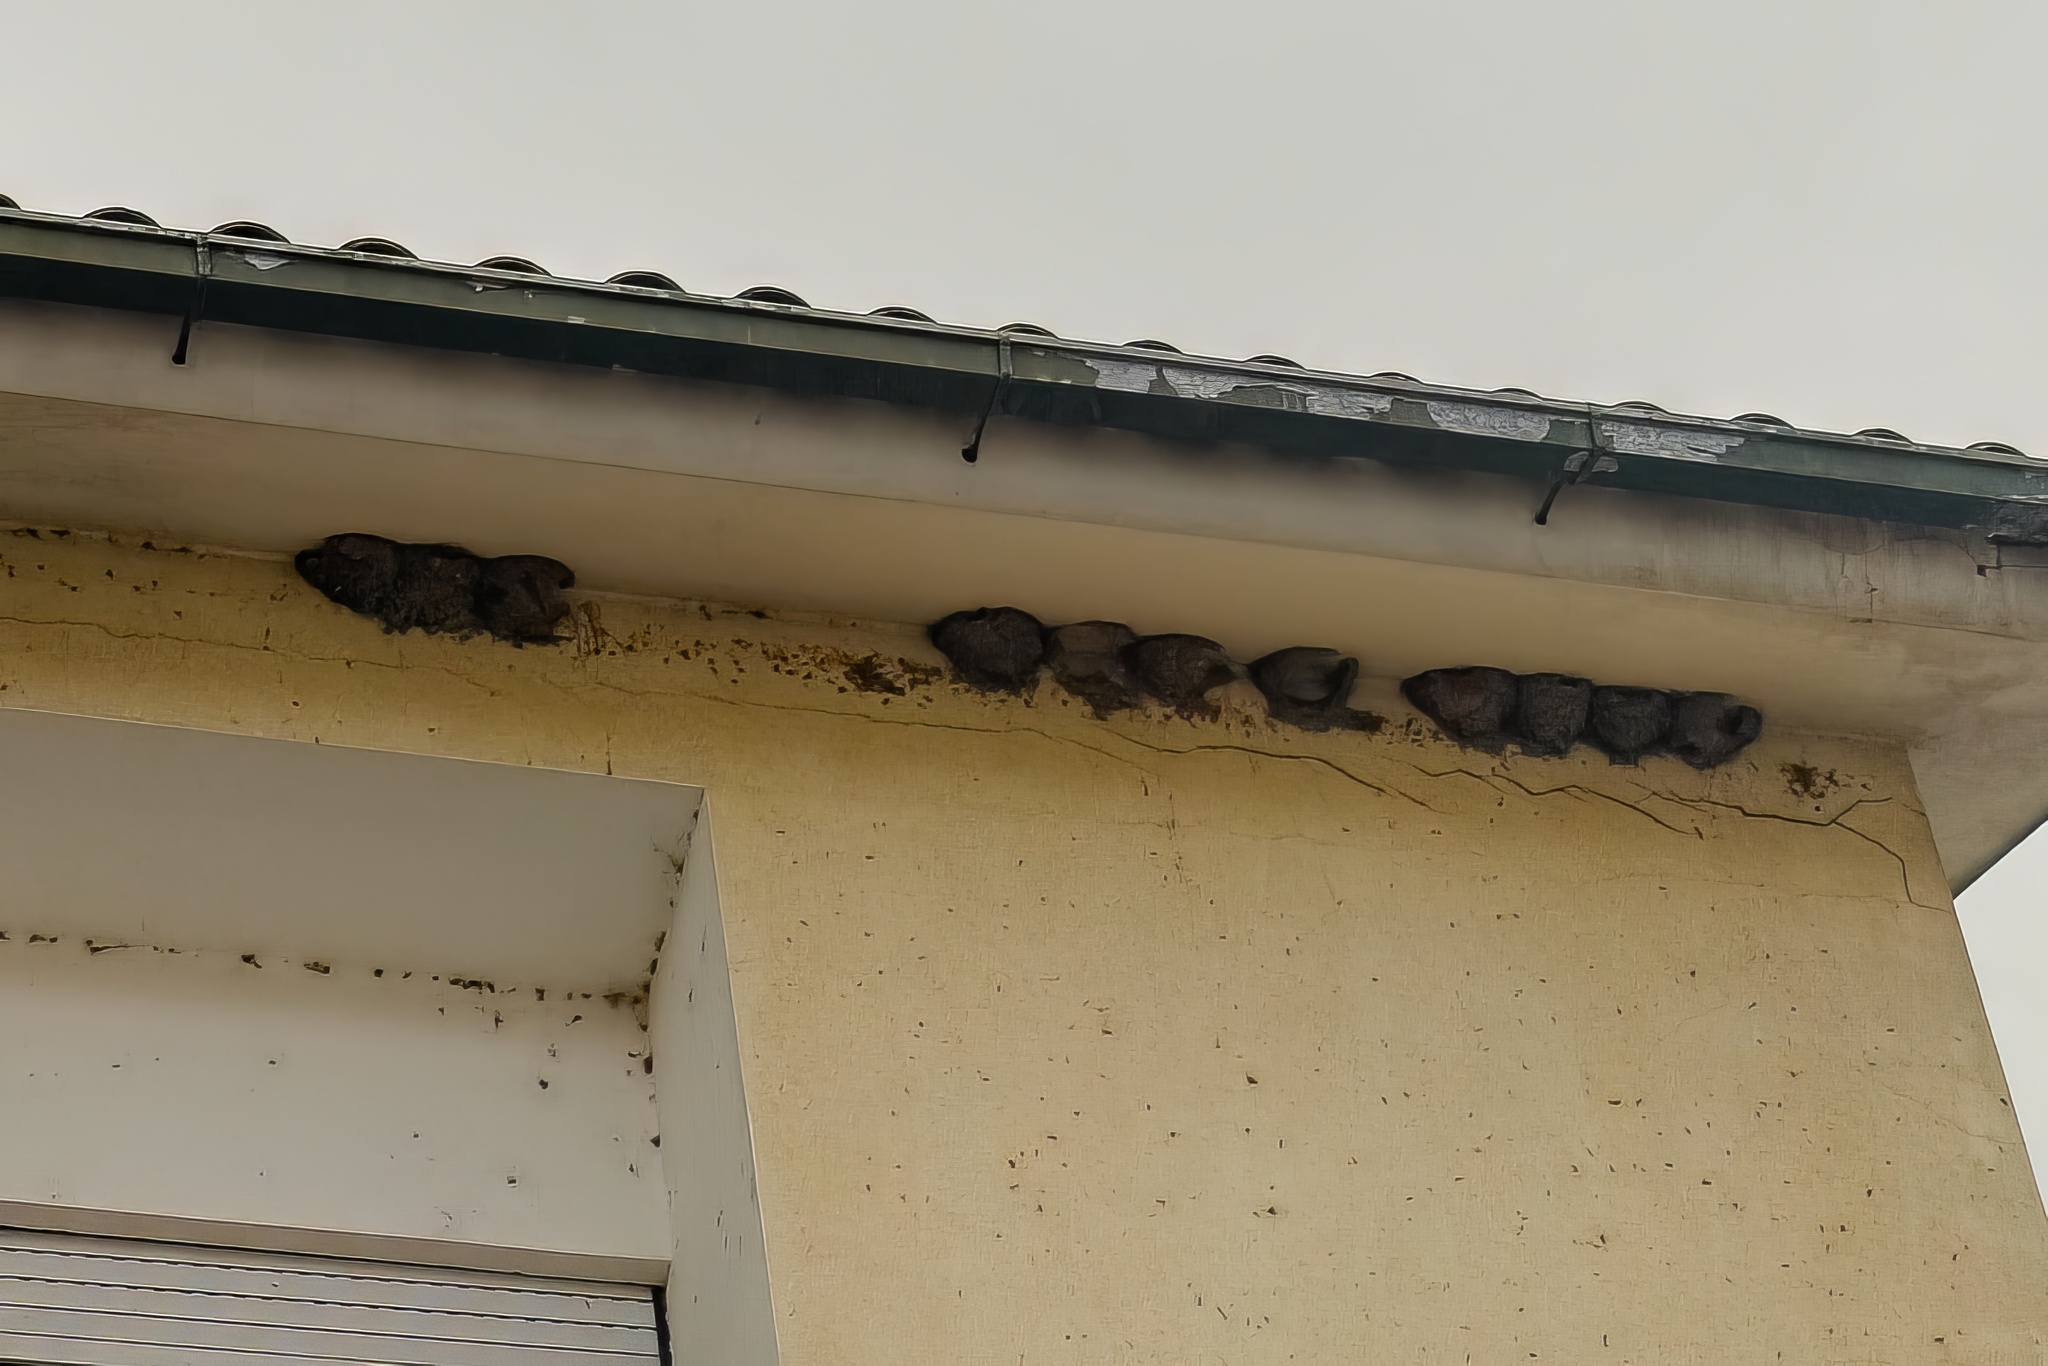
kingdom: Animalia
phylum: Chordata
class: Aves
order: Passeriformes
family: Hirundinidae
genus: Delichon
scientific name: Delichon urbicum
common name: Common house martin
